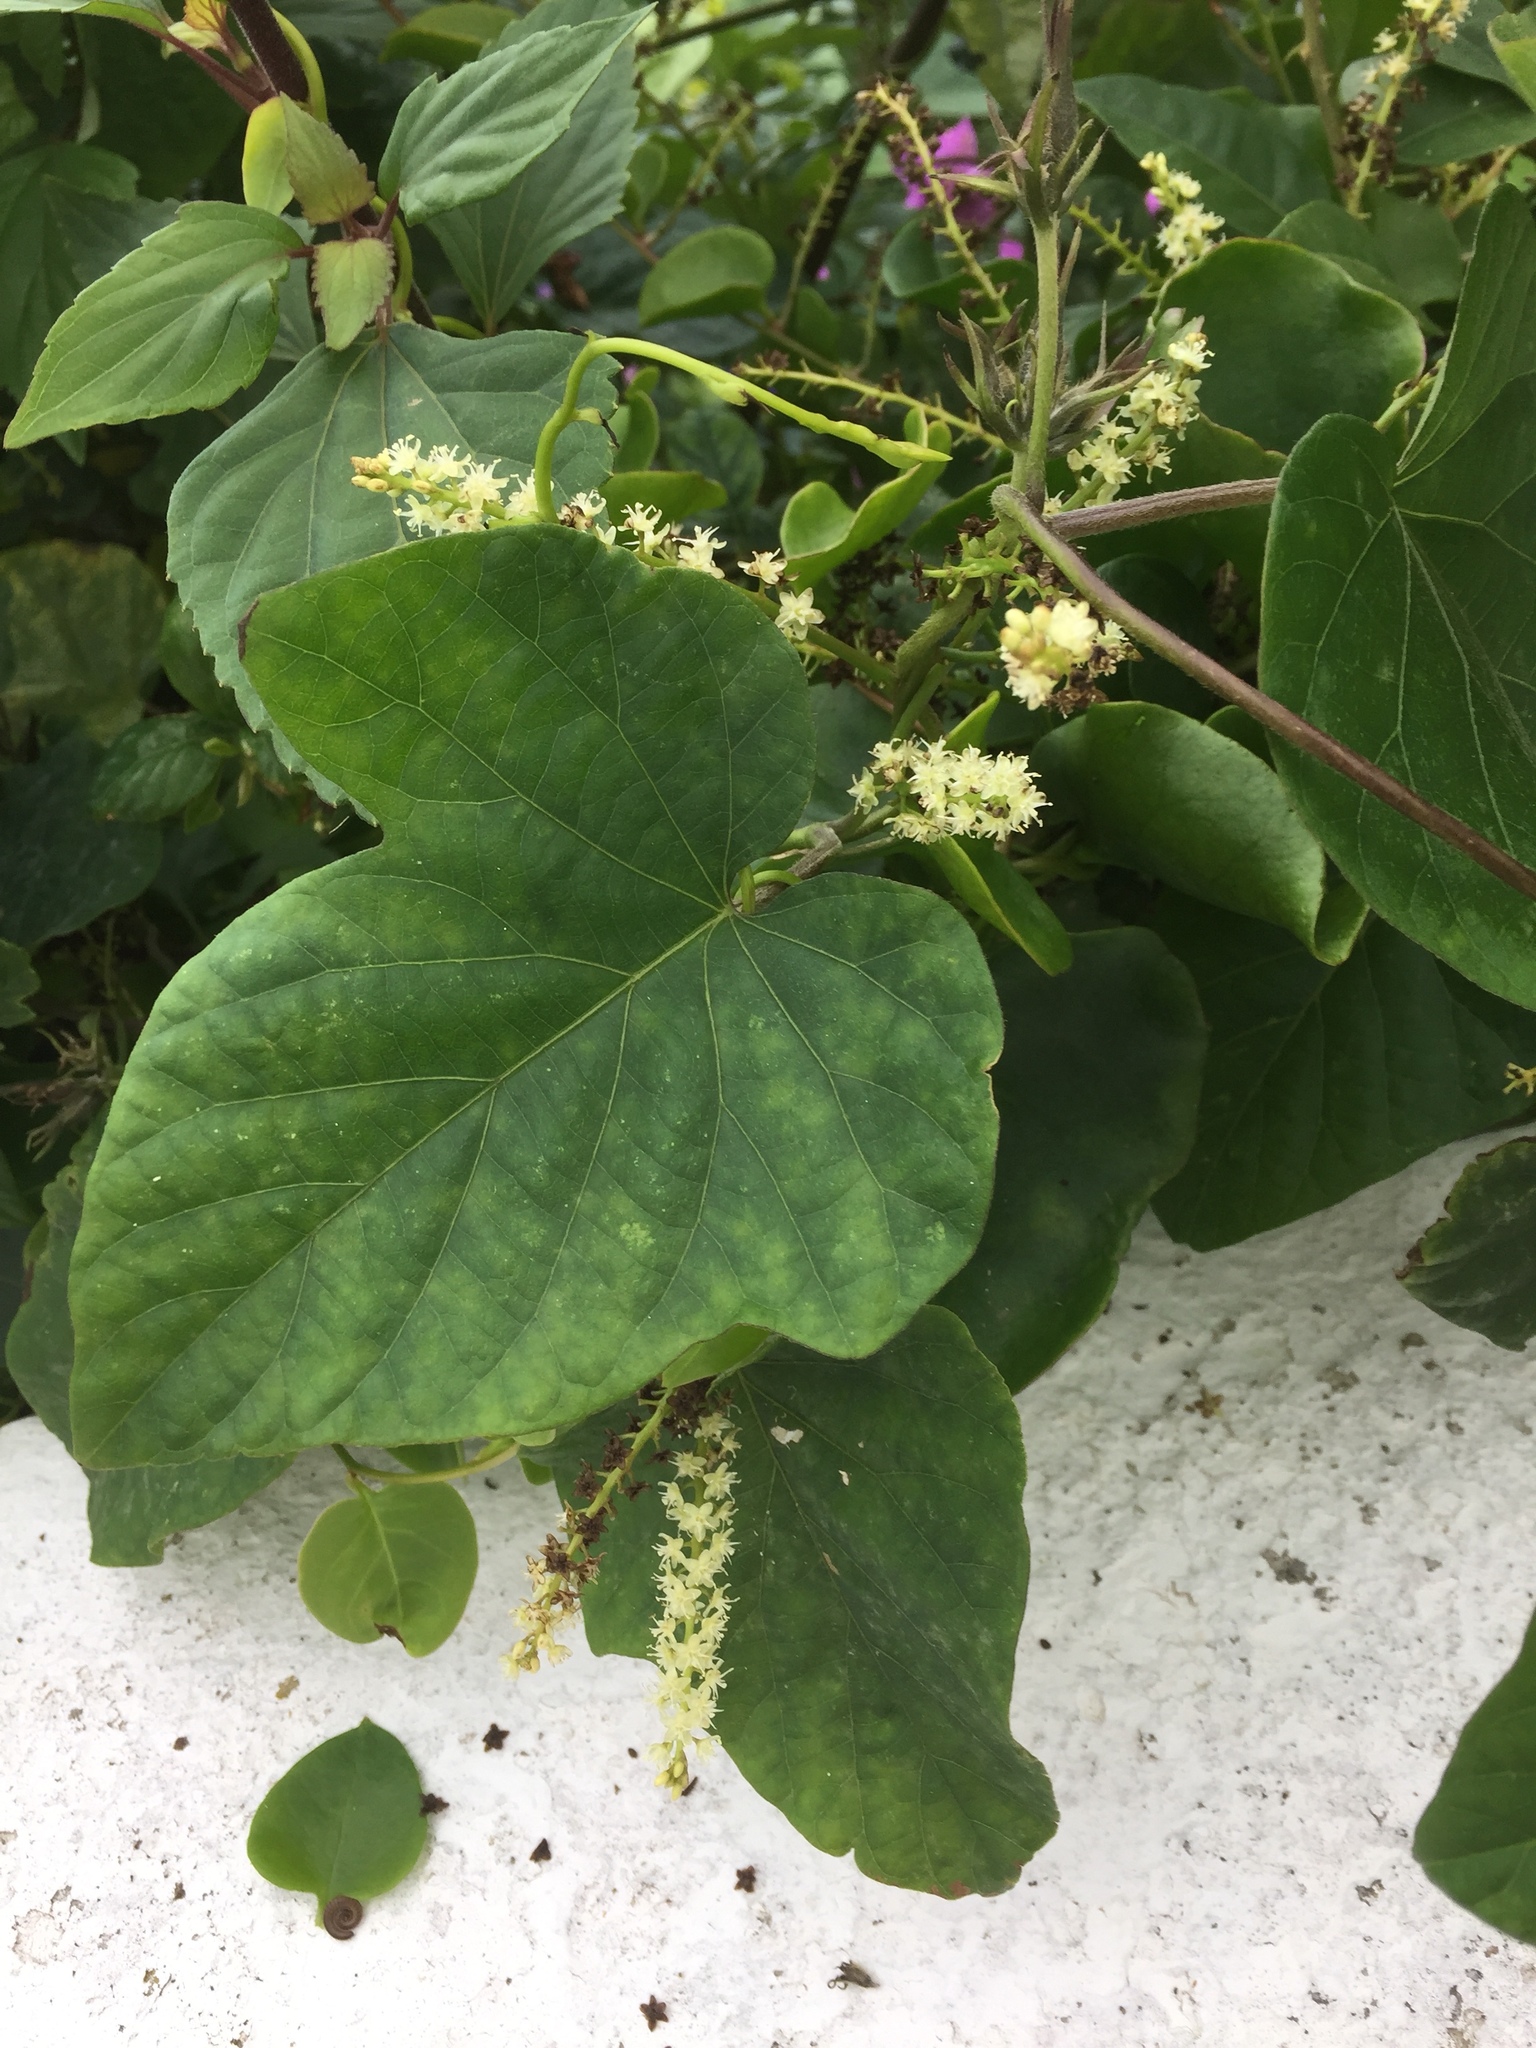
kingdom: Plantae
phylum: Tracheophyta
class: Magnoliopsida
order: Caryophyllales
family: Basellaceae
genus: Anredera
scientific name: Anredera cordifolia
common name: Heartleaf madeiravine
